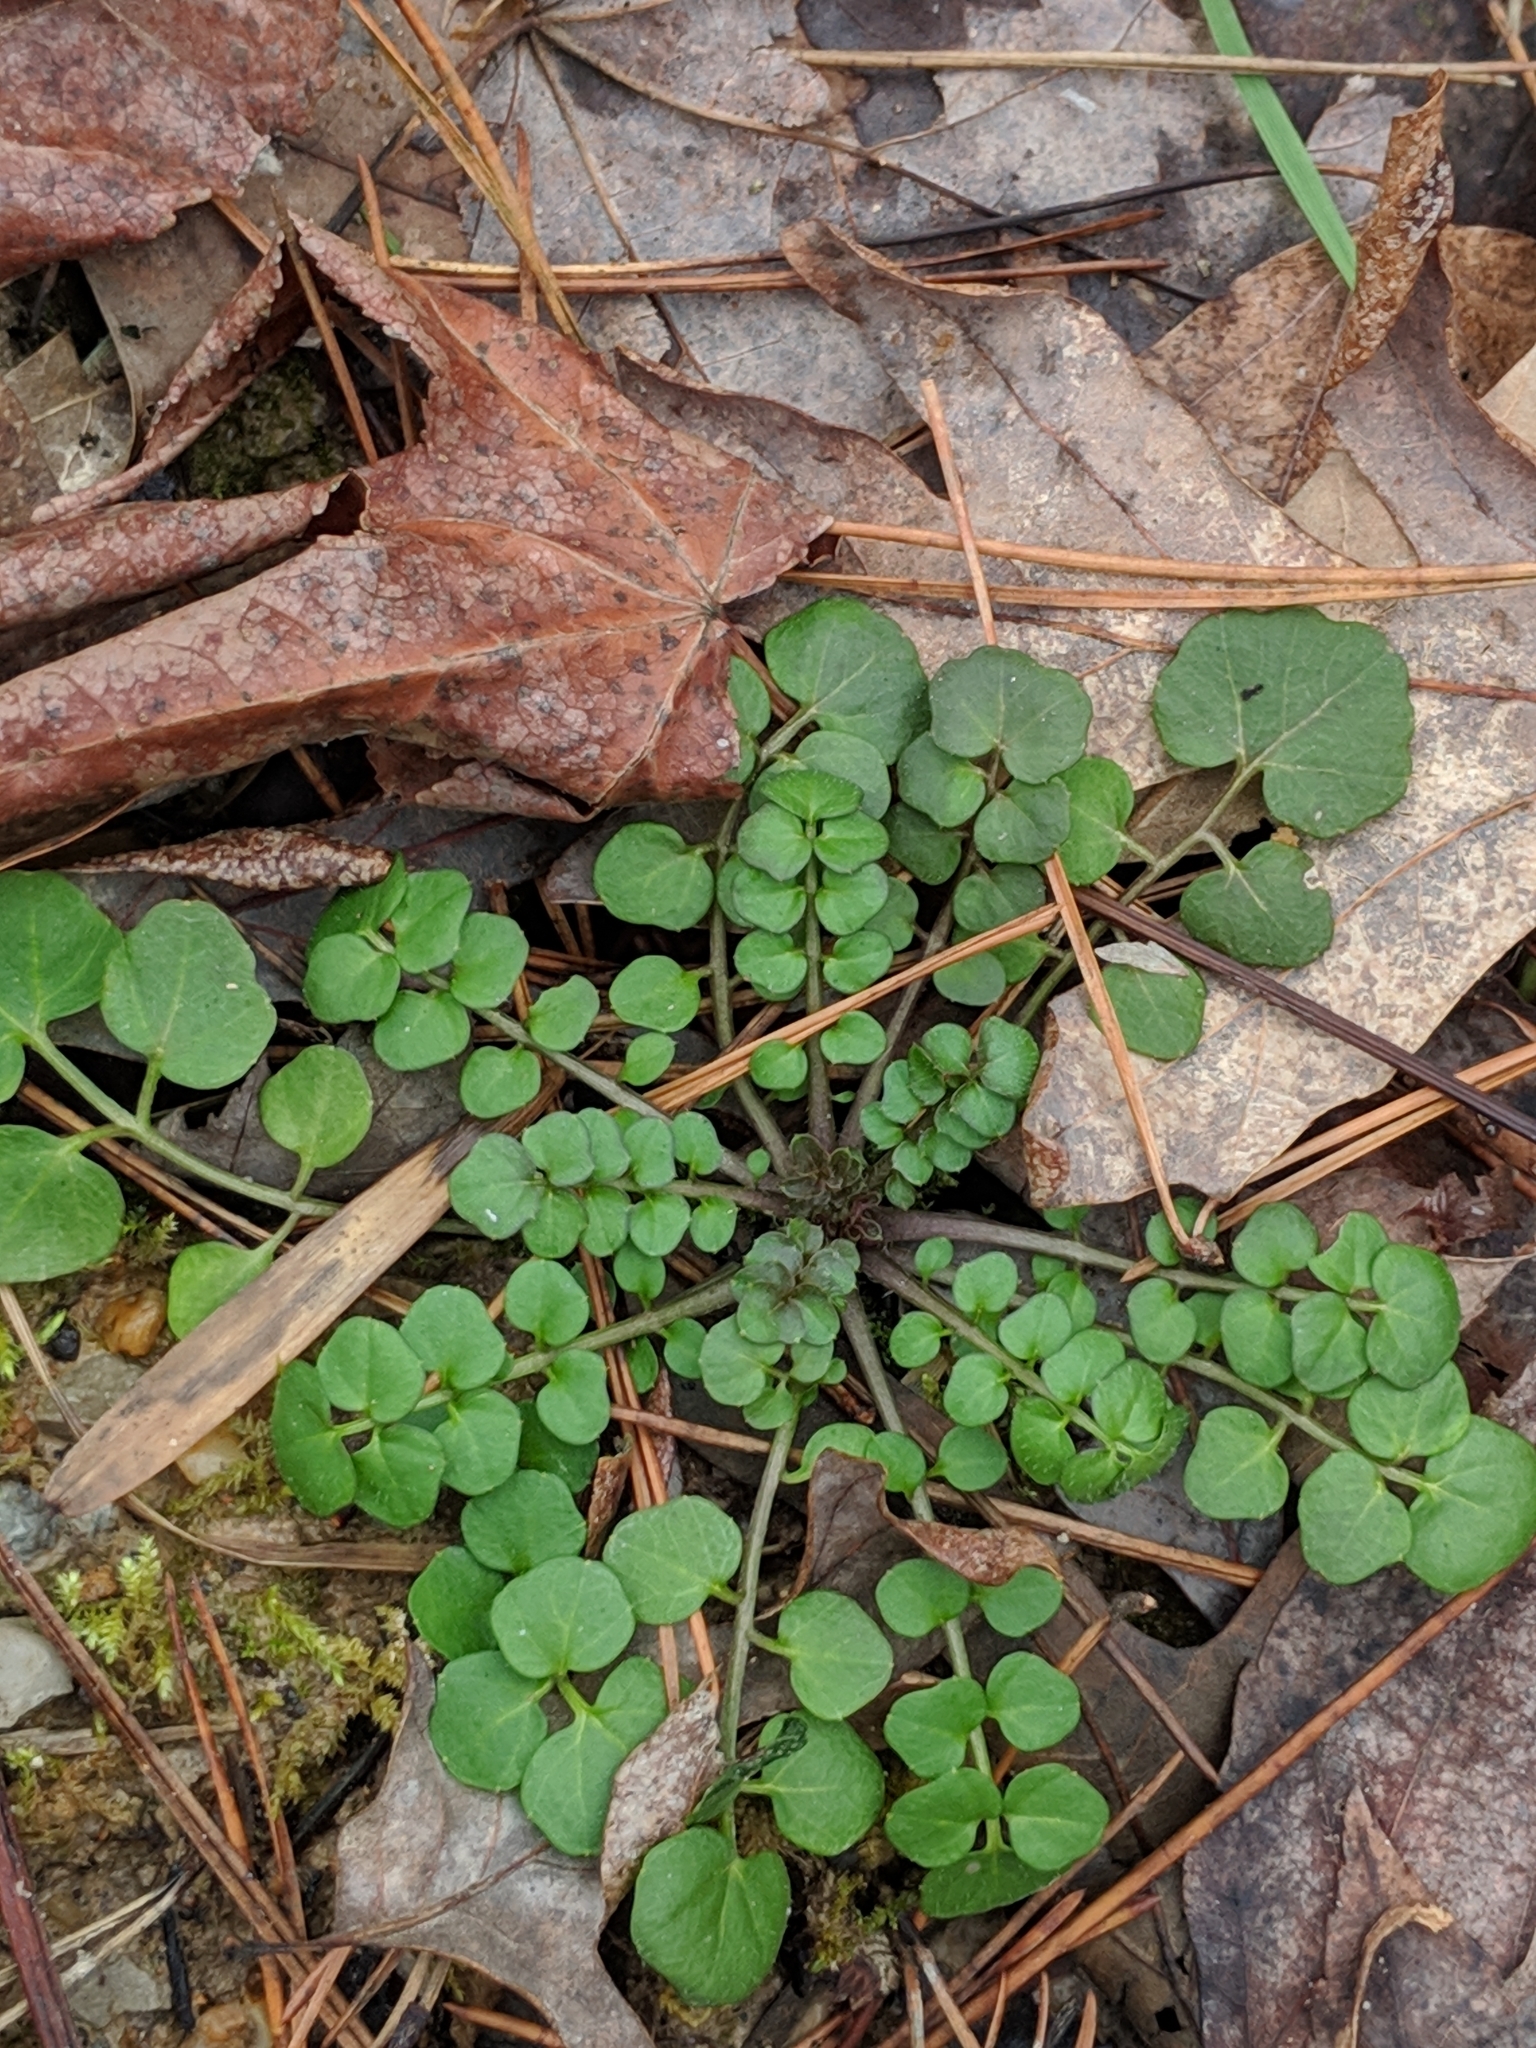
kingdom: Plantae
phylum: Tracheophyta
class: Magnoliopsida
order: Brassicales
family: Brassicaceae
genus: Cardamine
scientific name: Cardamine hirsuta
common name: Hairy bittercress
